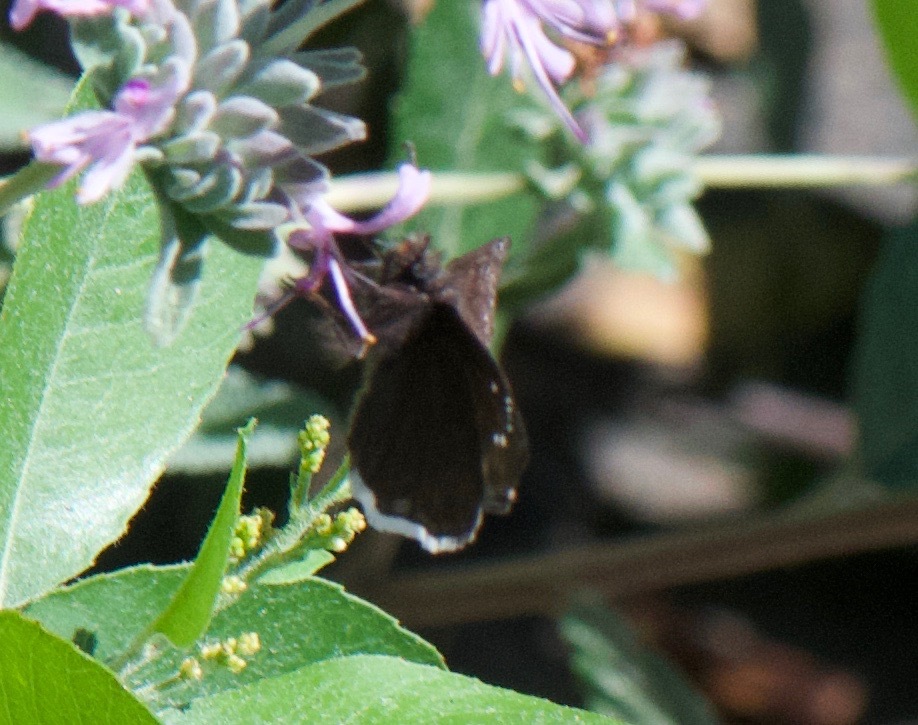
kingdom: Animalia
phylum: Arthropoda
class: Insecta
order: Lepidoptera
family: Hesperiidae
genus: Erynnis
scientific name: Erynnis tristis
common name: Mournful duskywing
